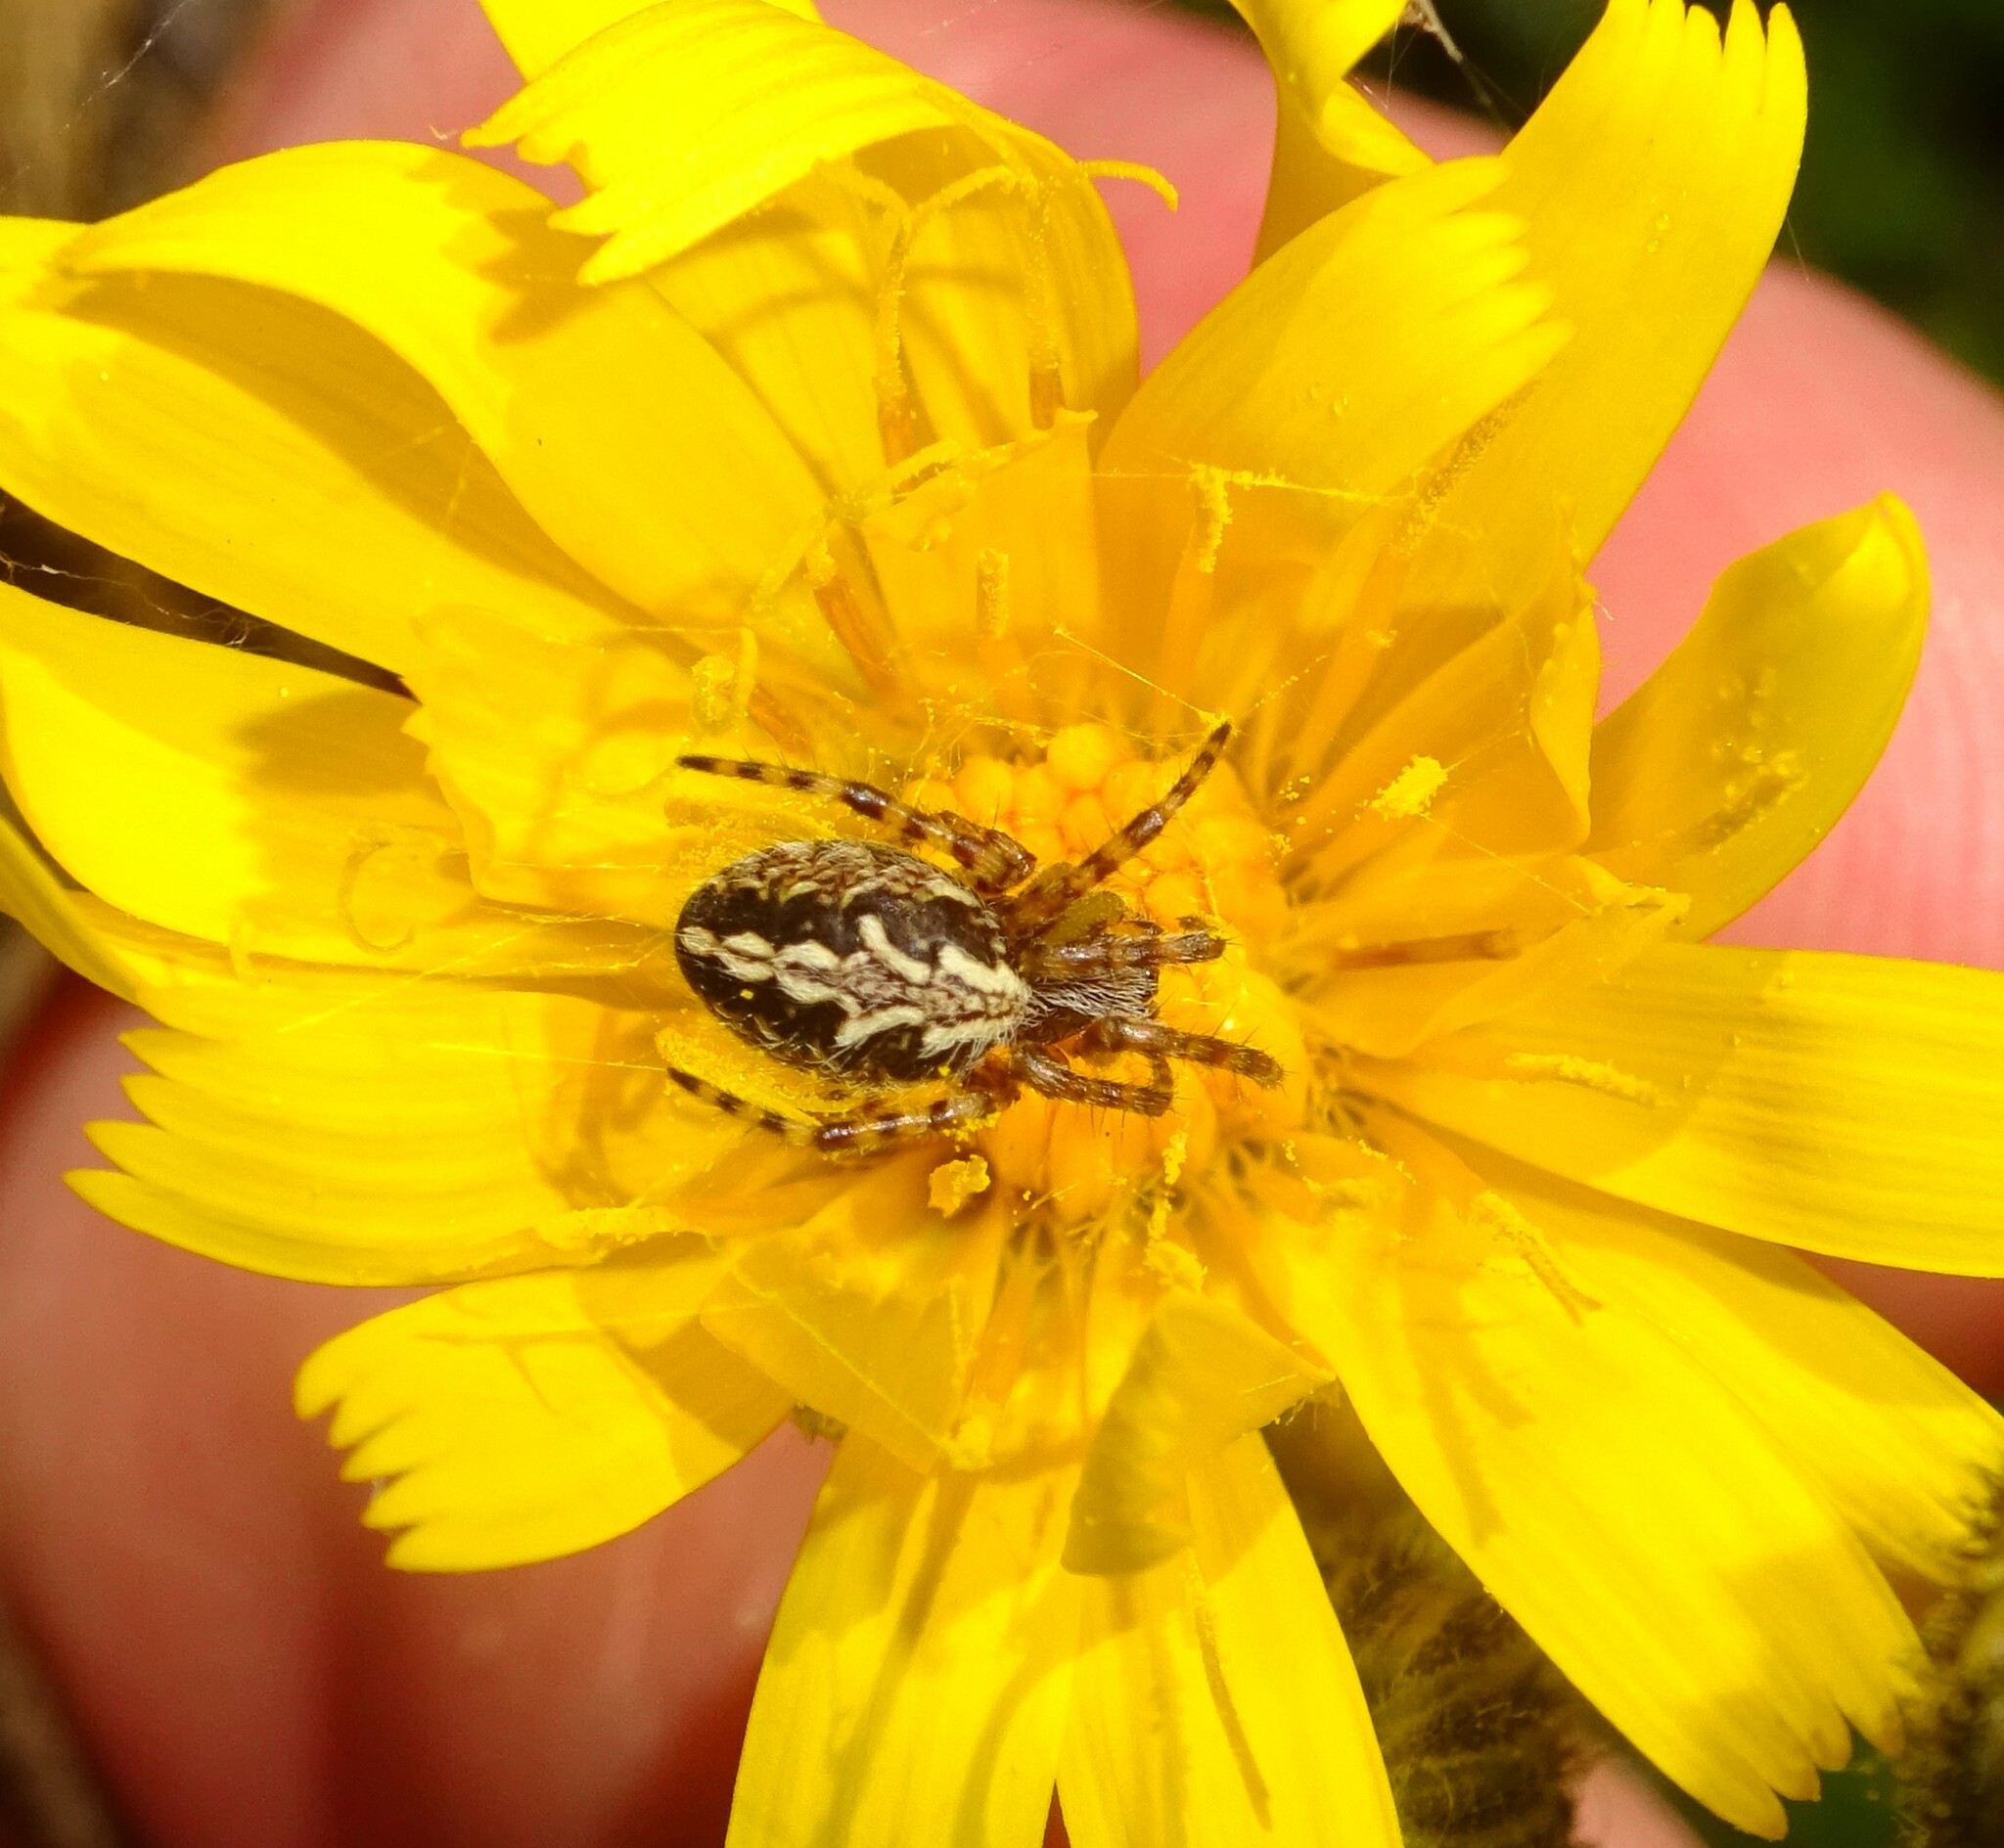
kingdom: Animalia
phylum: Arthropoda
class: Arachnida
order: Araneae
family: Araneidae
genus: Aculepeira
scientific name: Aculepeira ceropegia
